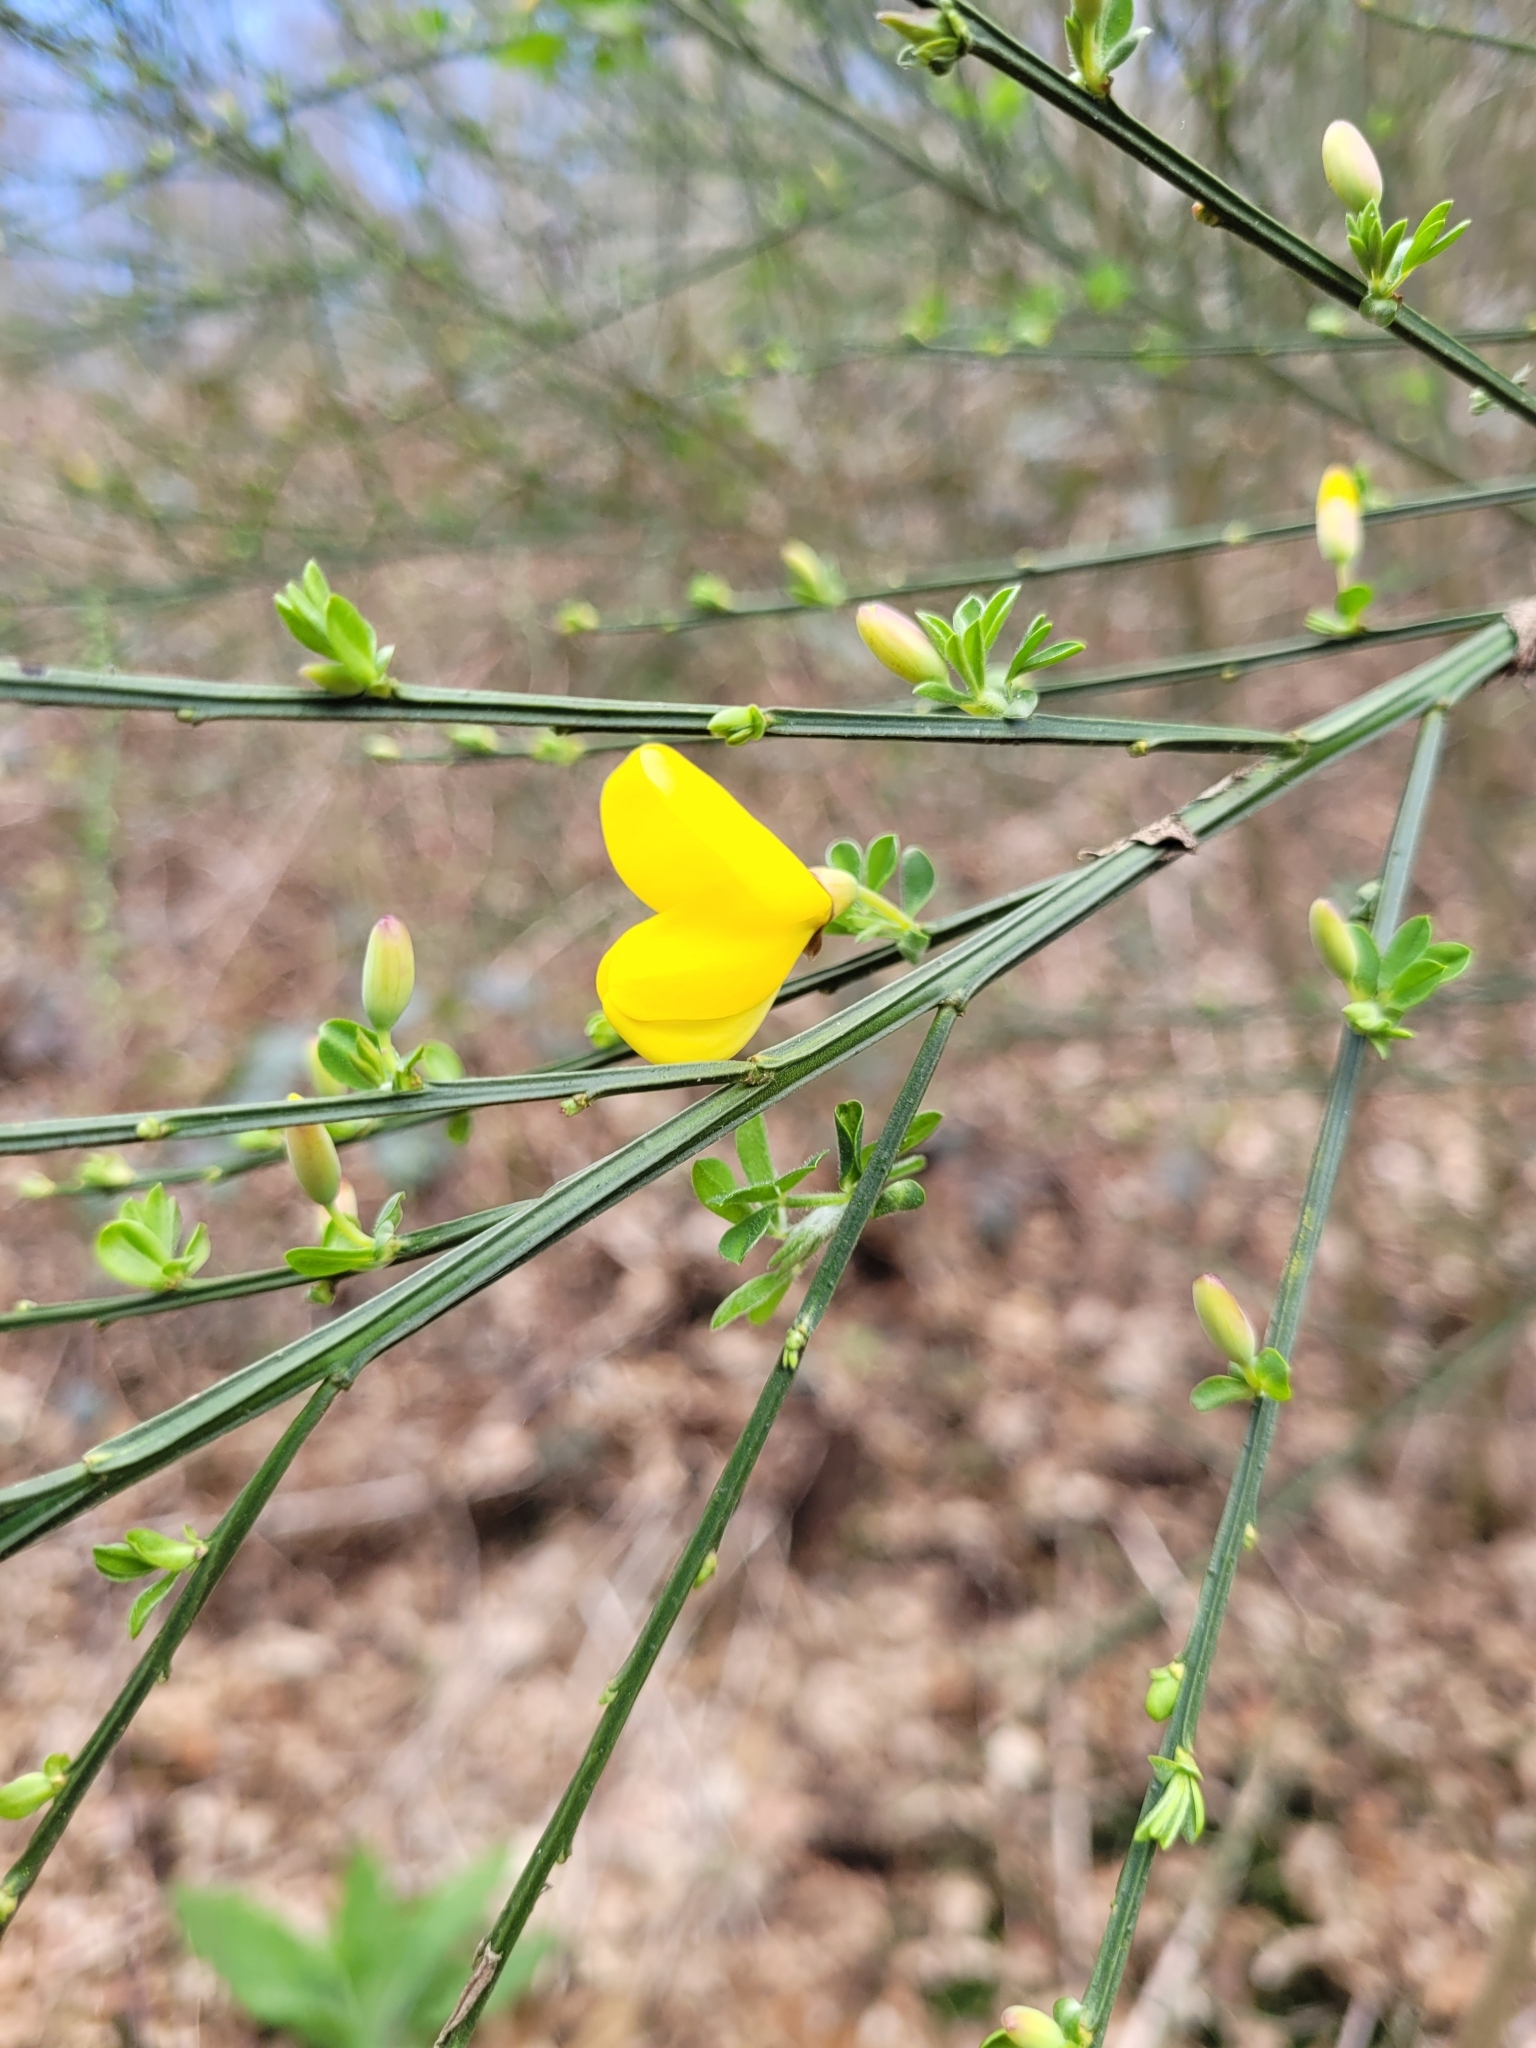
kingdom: Plantae
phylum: Tracheophyta
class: Magnoliopsida
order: Fabales
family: Fabaceae
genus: Cytisus
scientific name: Cytisus scoparius
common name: Scotch broom
